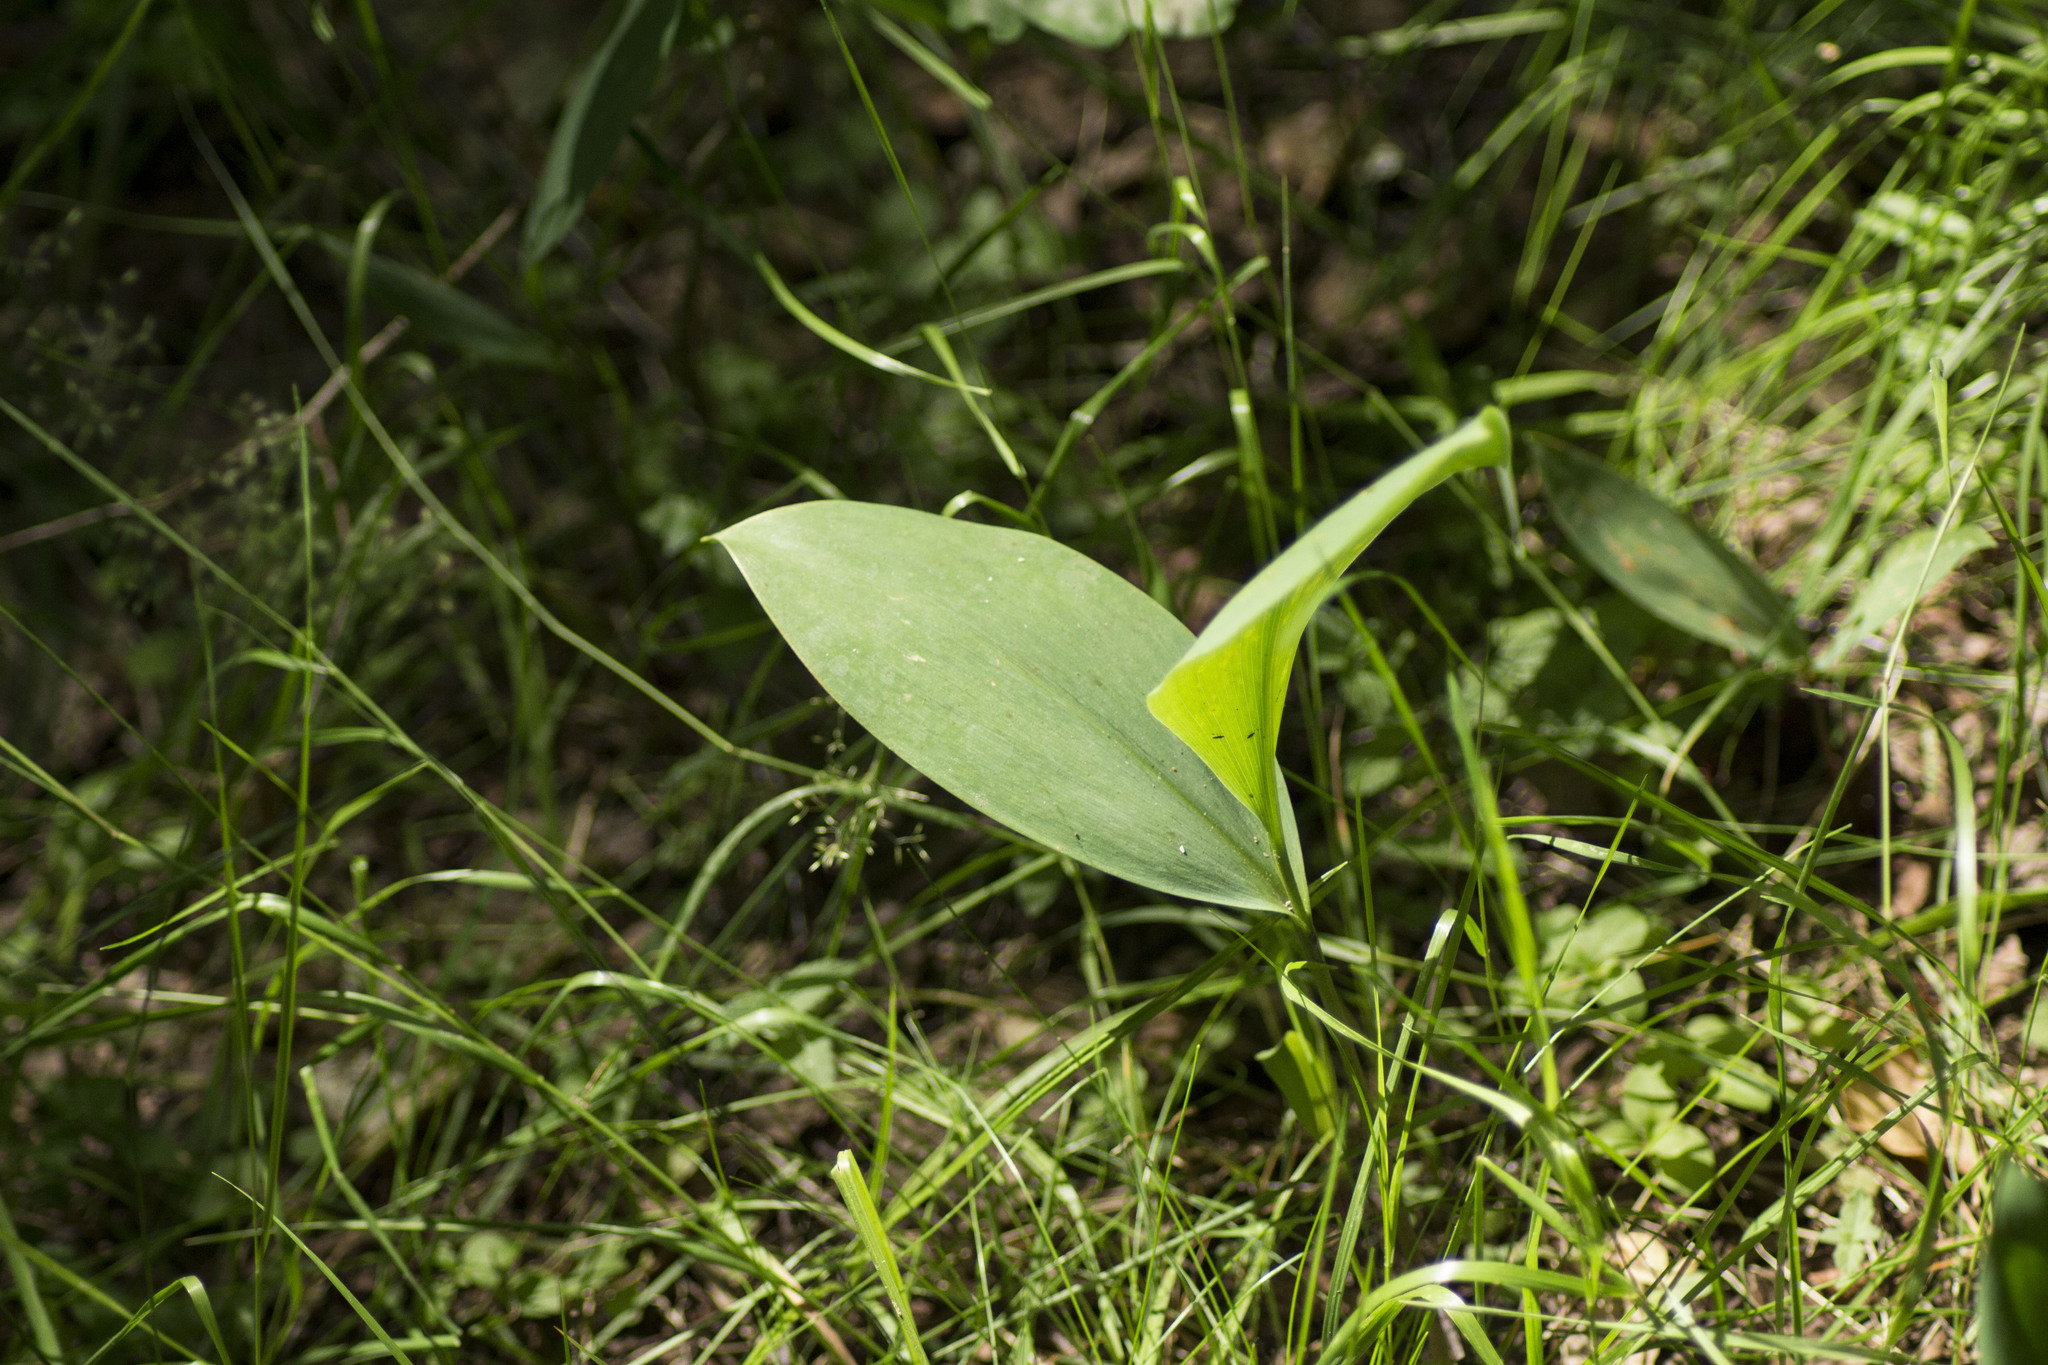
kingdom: Plantae
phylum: Tracheophyta
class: Liliopsida
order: Asparagales
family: Asparagaceae
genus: Convallaria
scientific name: Convallaria majalis
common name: Lily-of-the-valley
